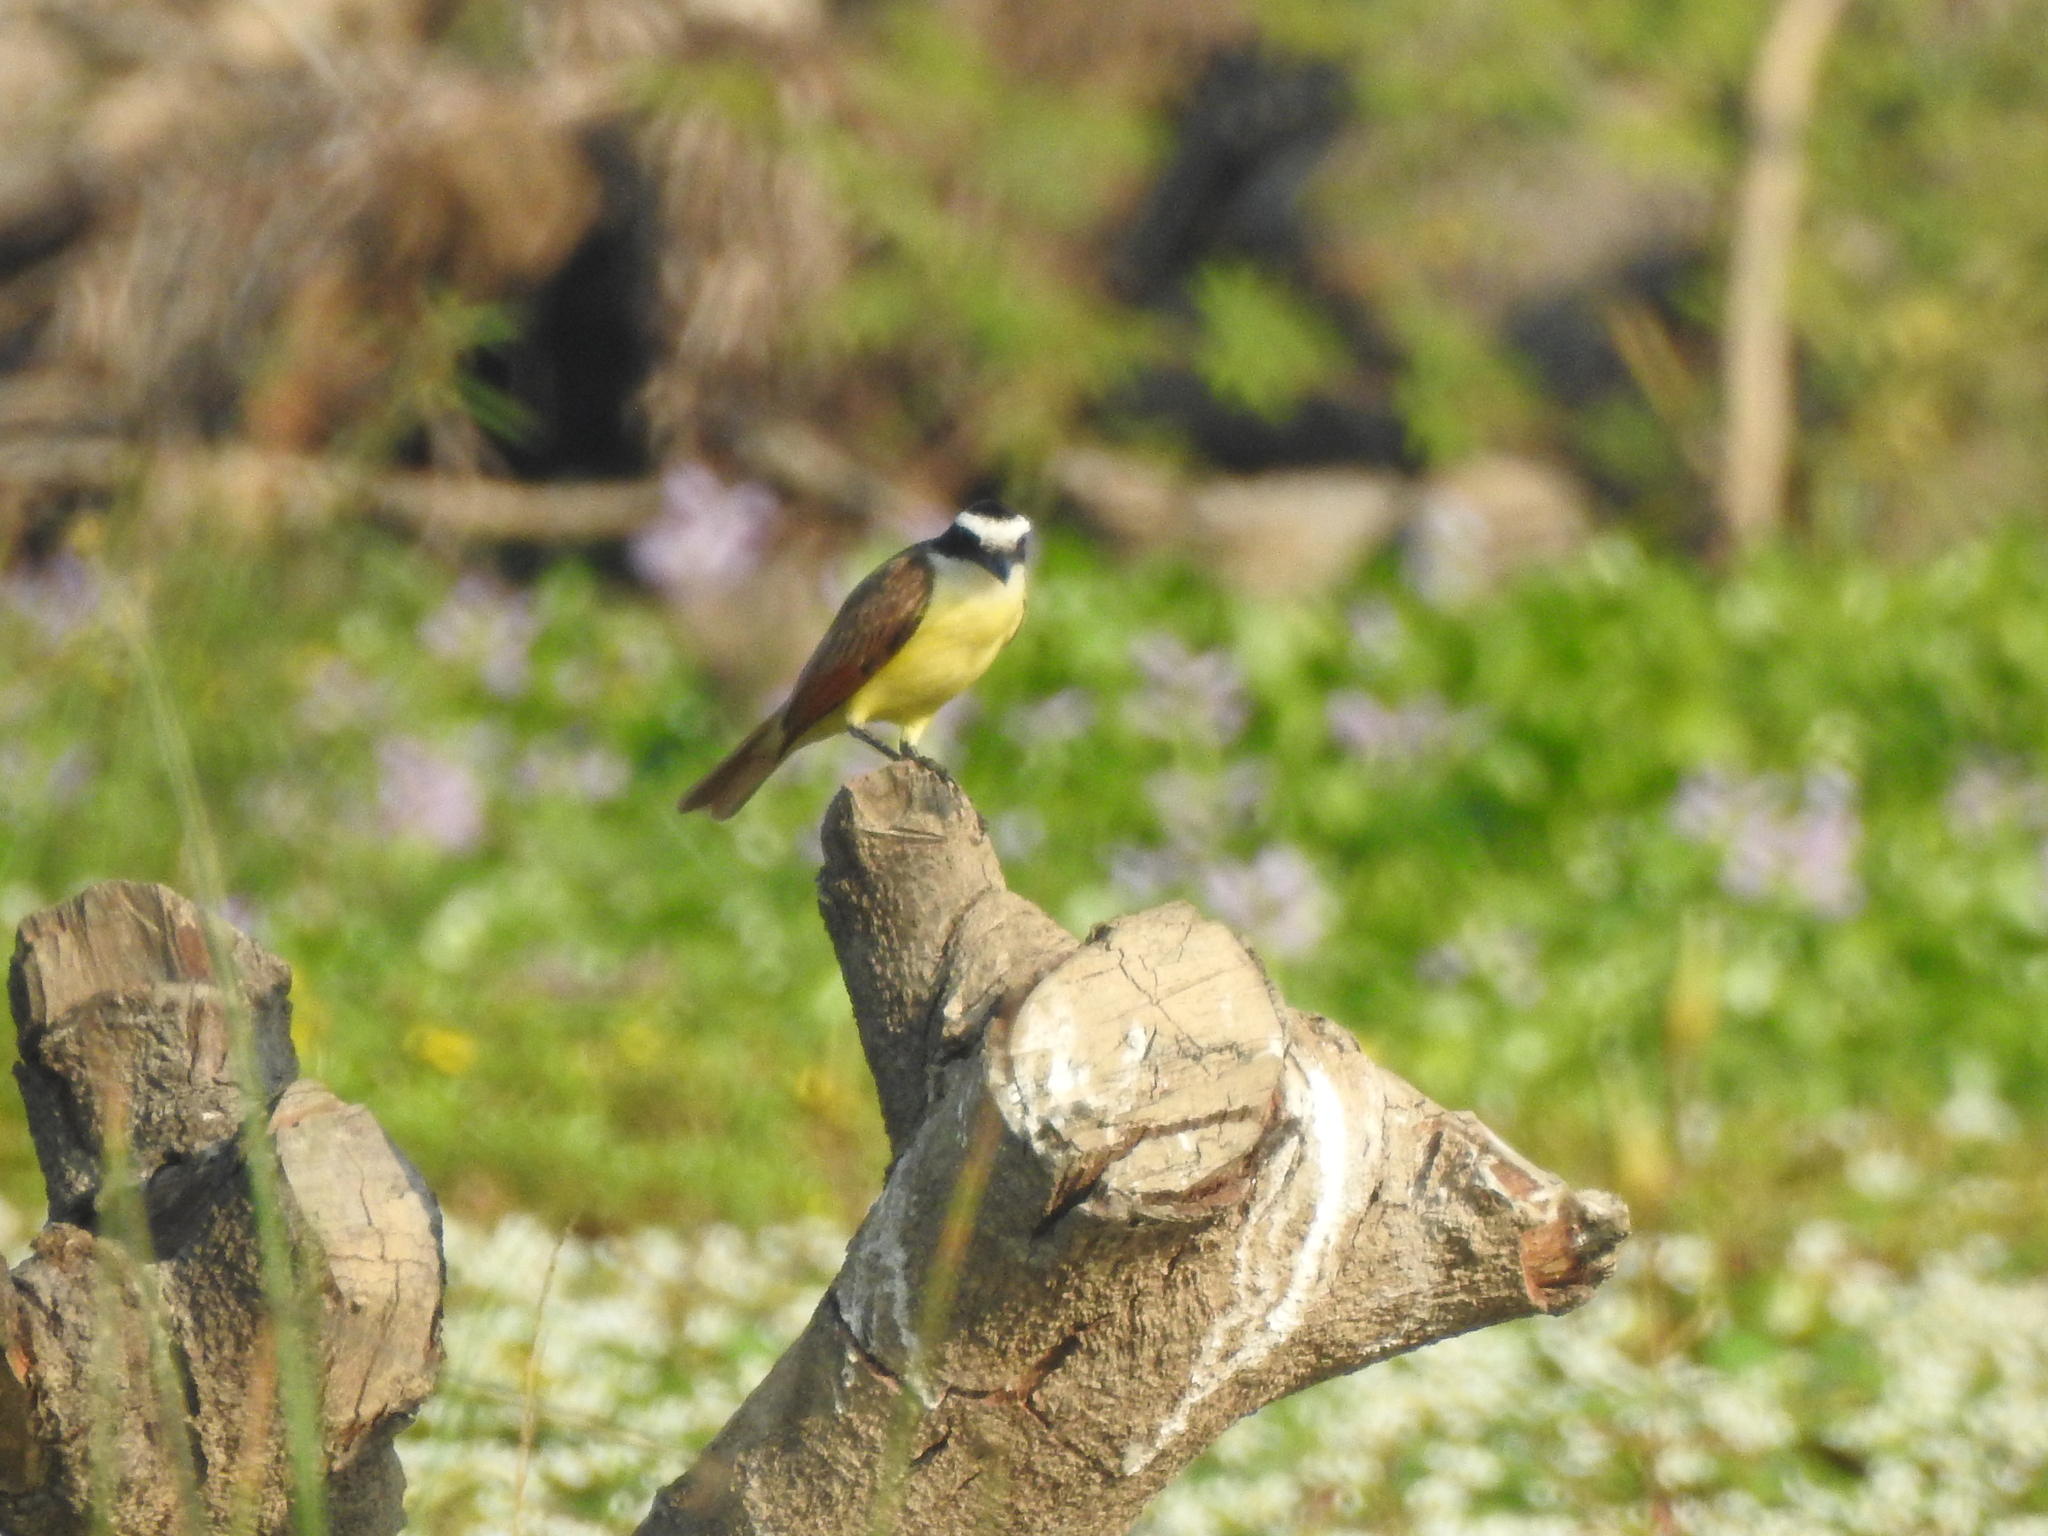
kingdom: Animalia
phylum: Chordata
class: Aves
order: Passeriformes
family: Tyrannidae
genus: Pitangus
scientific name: Pitangus sulphuratus
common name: Great kiskadee
